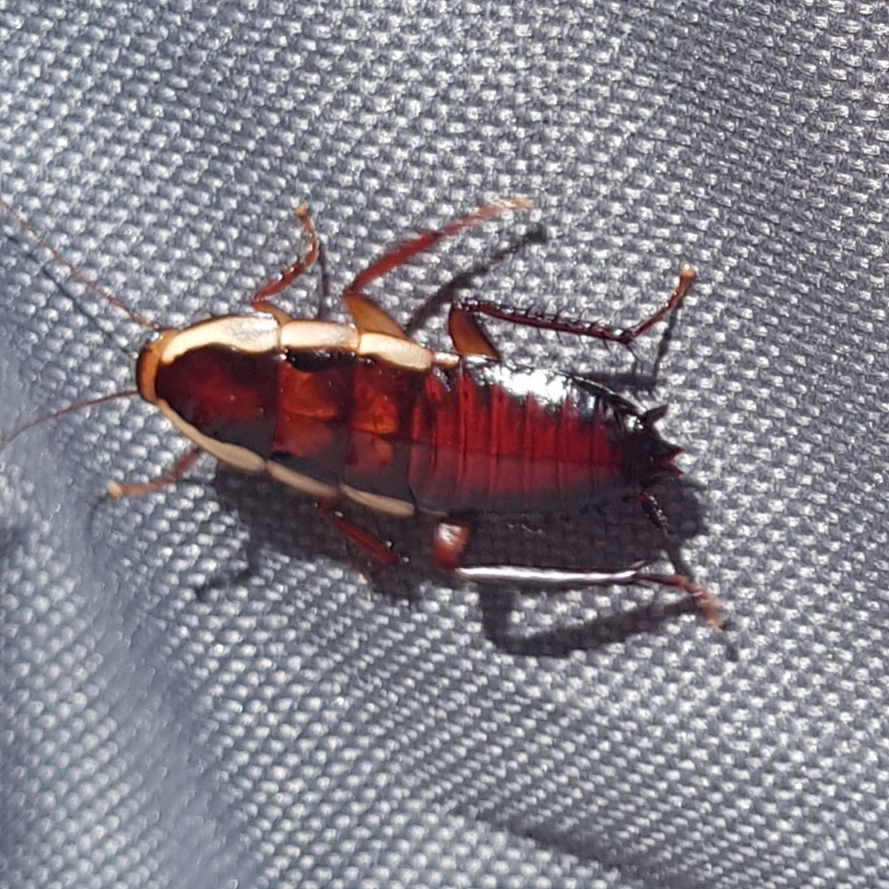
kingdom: Animalia
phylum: Arthropoda
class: Insecta
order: Blattodea
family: Blattidae
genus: Drymaplaneta
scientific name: Drymaplaneta semivitta
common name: Gisborne cockroach
